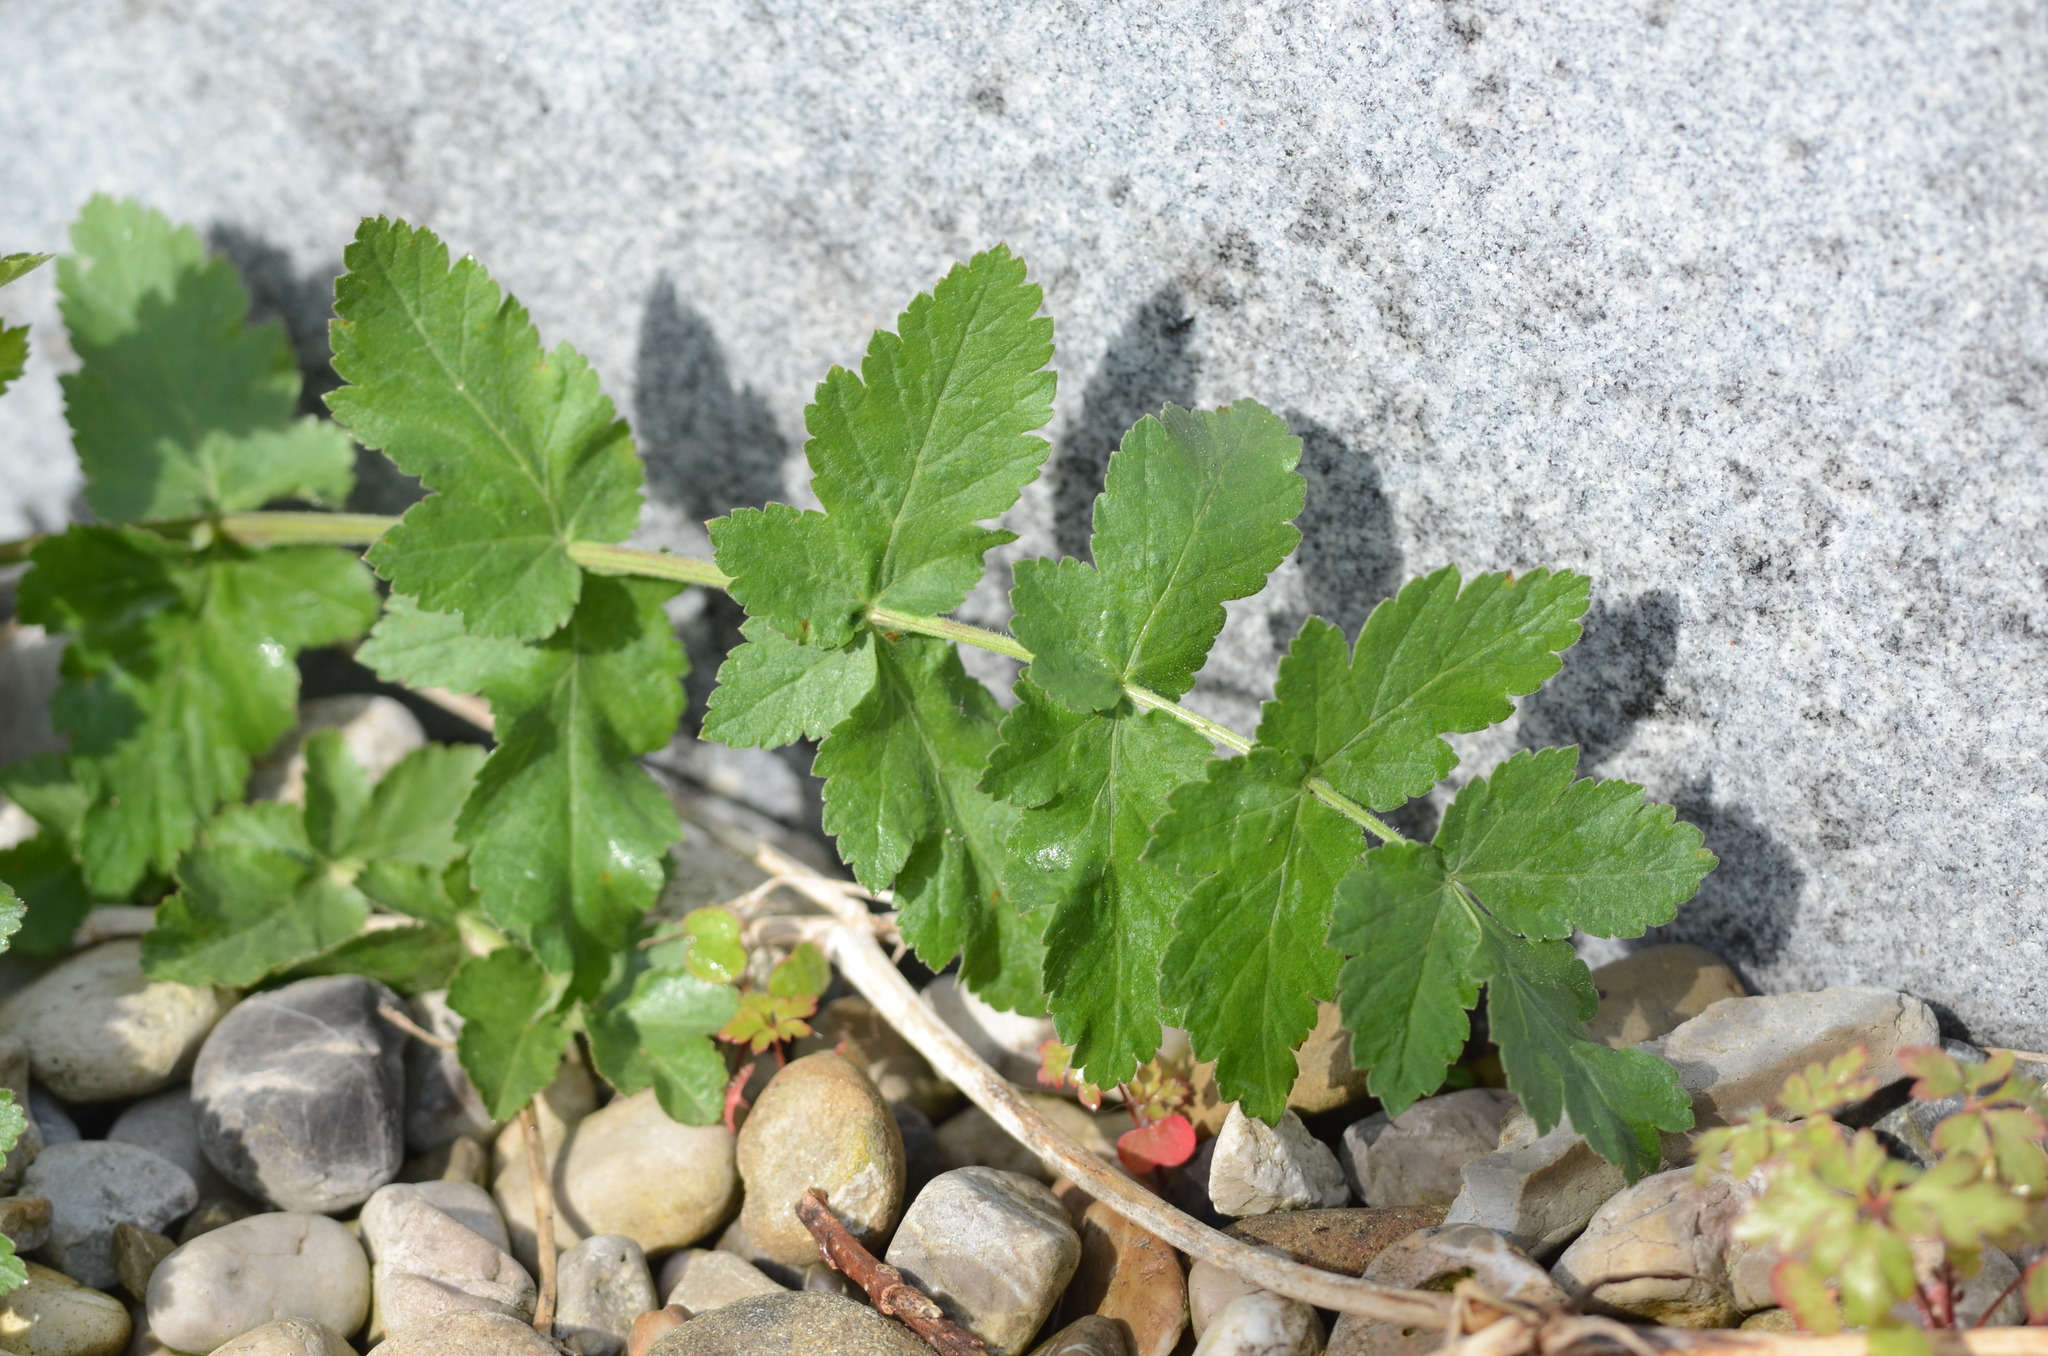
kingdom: Plantae
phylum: Tracheophyta
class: Magnoliopsida
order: Apiales
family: Apiaceae
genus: Pastinaca
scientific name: Pastinaca sativa
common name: Wild parsnip
